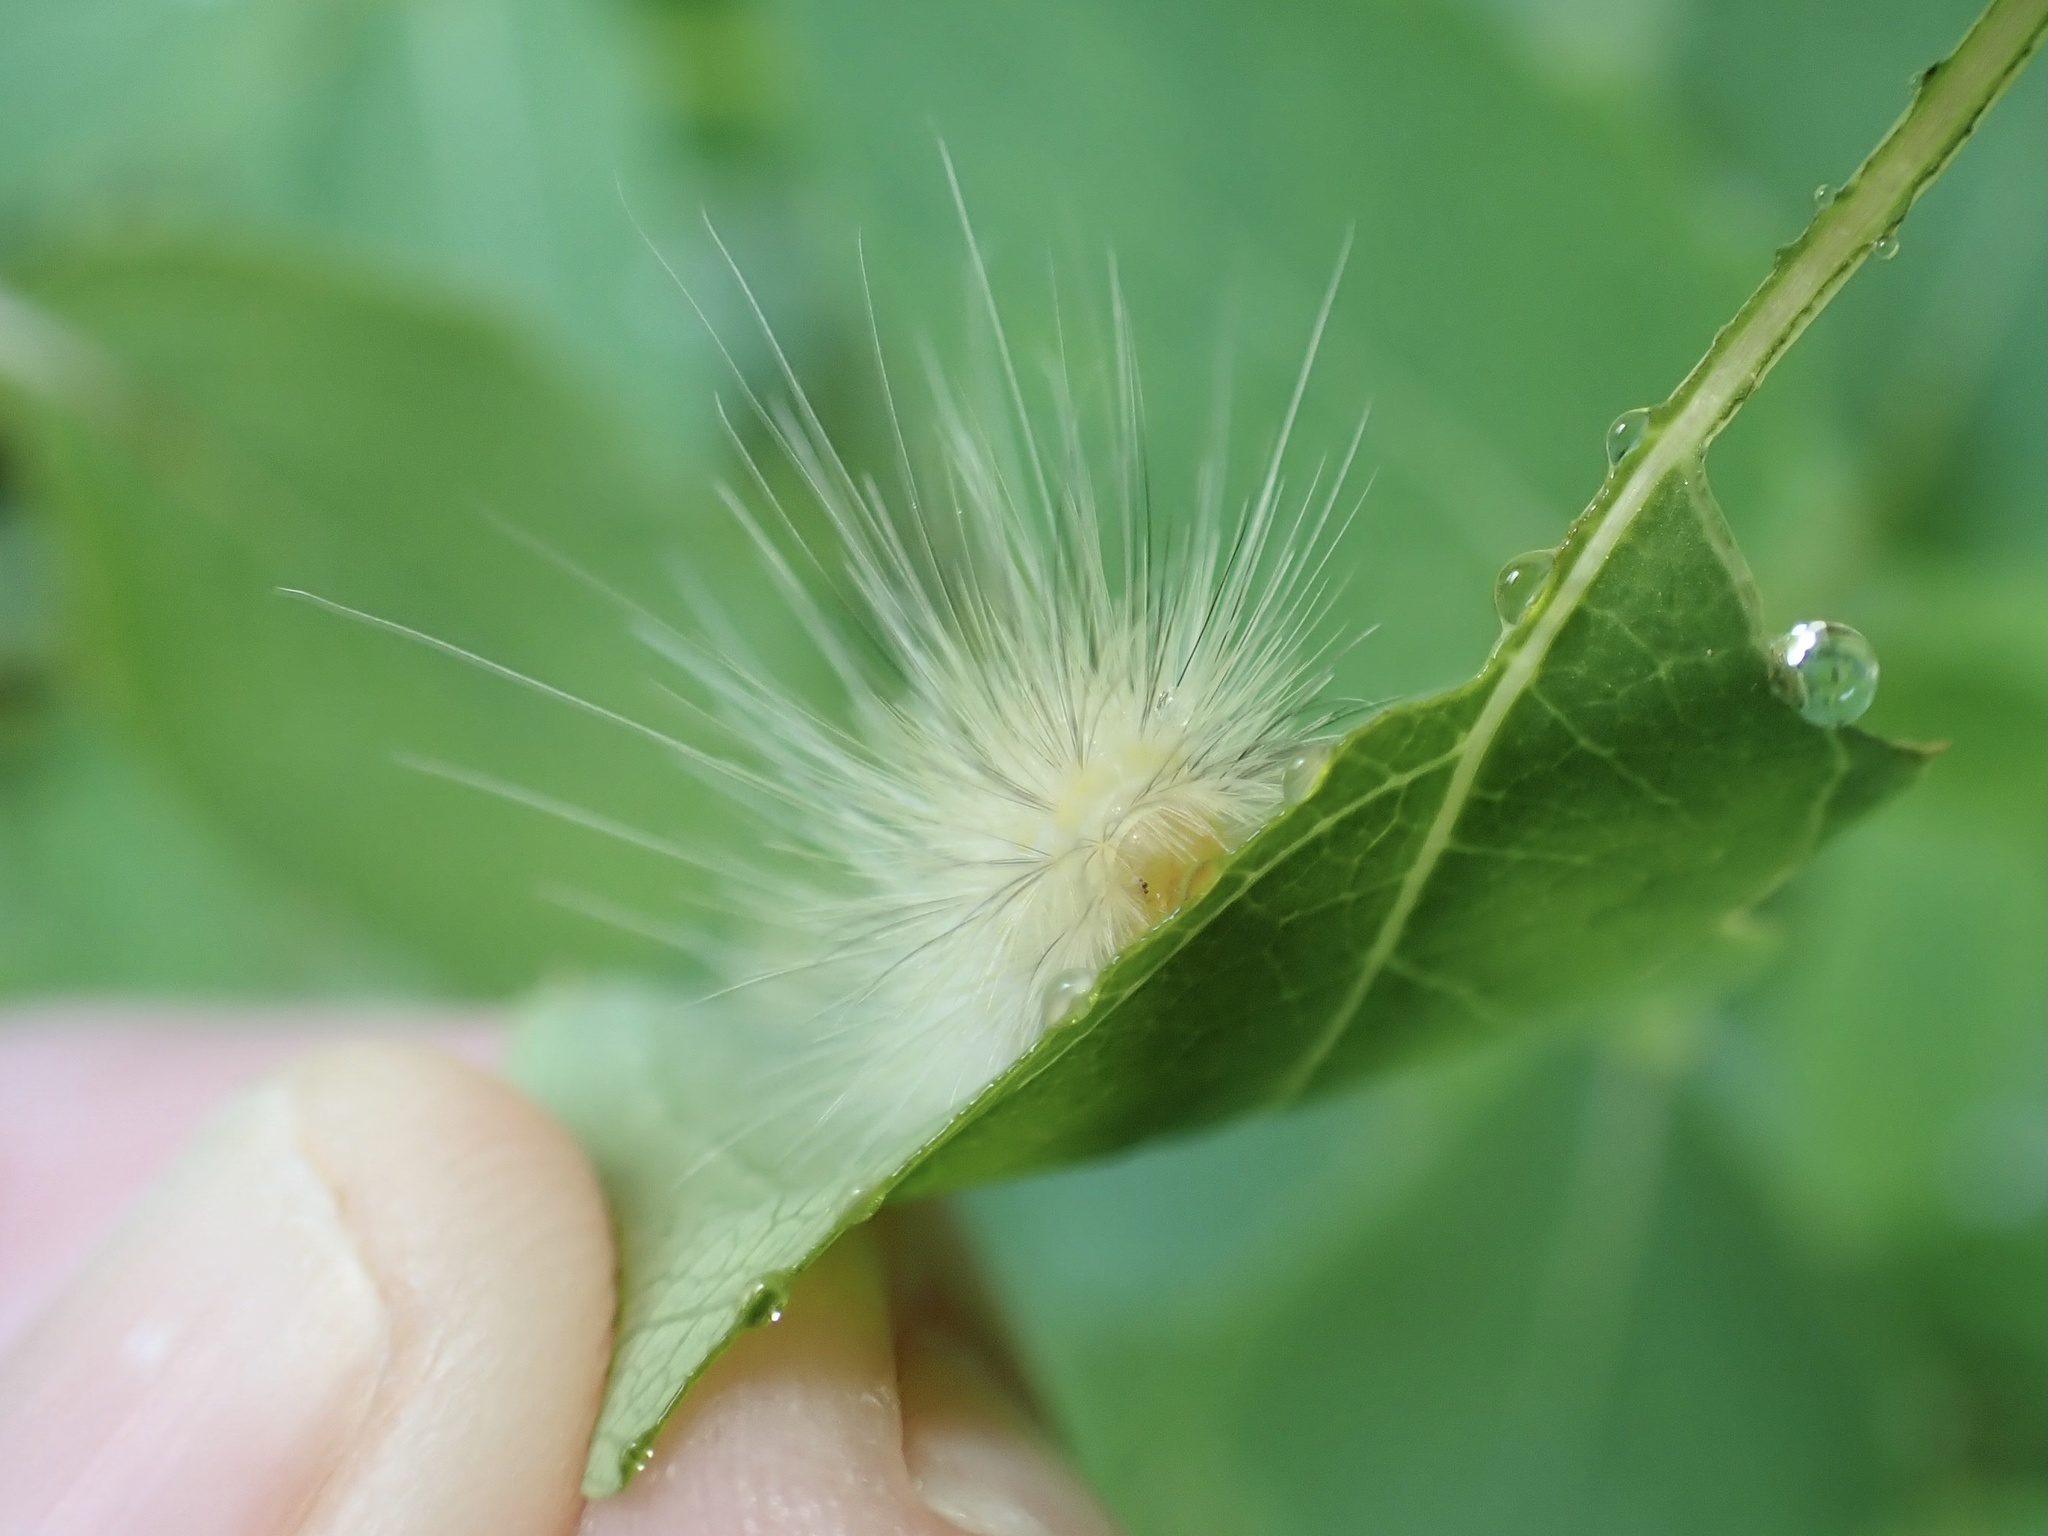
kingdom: Animalia
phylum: Arthropoda
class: Insecta
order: Lepidoptera
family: Erebidae
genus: Spilosoma
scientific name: Spilosoma virginica
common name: Virginia tiger moth
